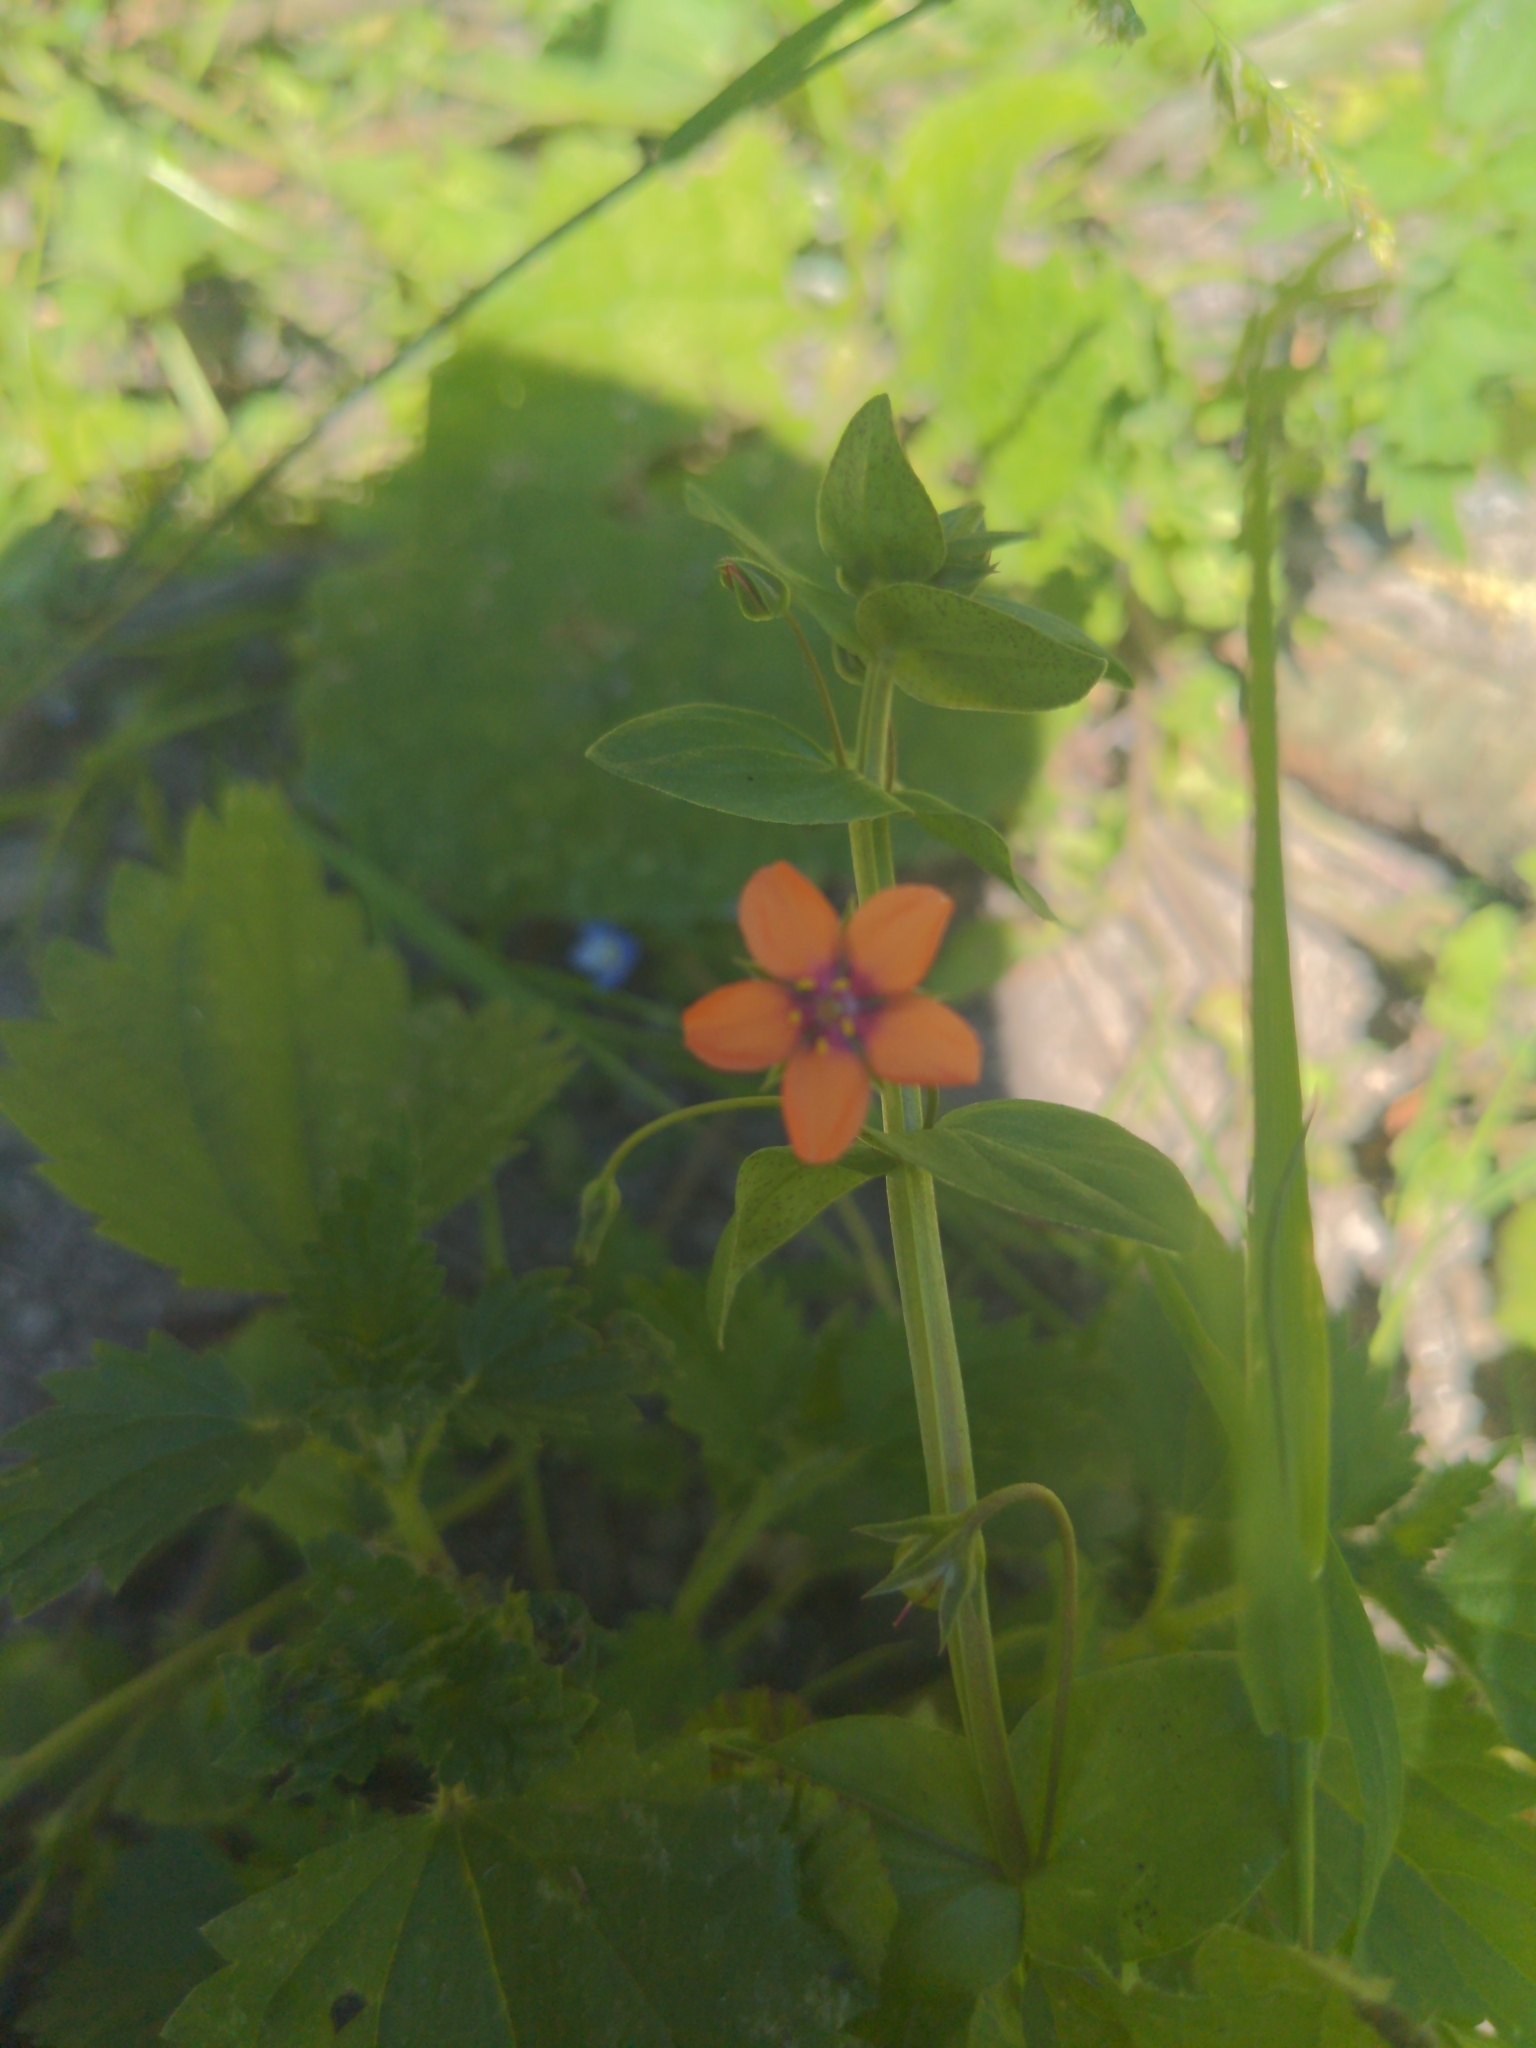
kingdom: Plantae
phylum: Tracheophyta
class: Magnoliopsida
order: Ericales
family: Primulaceae
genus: Lysimachia
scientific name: Lysimachia arvensis
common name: Scarlet pimpernel
